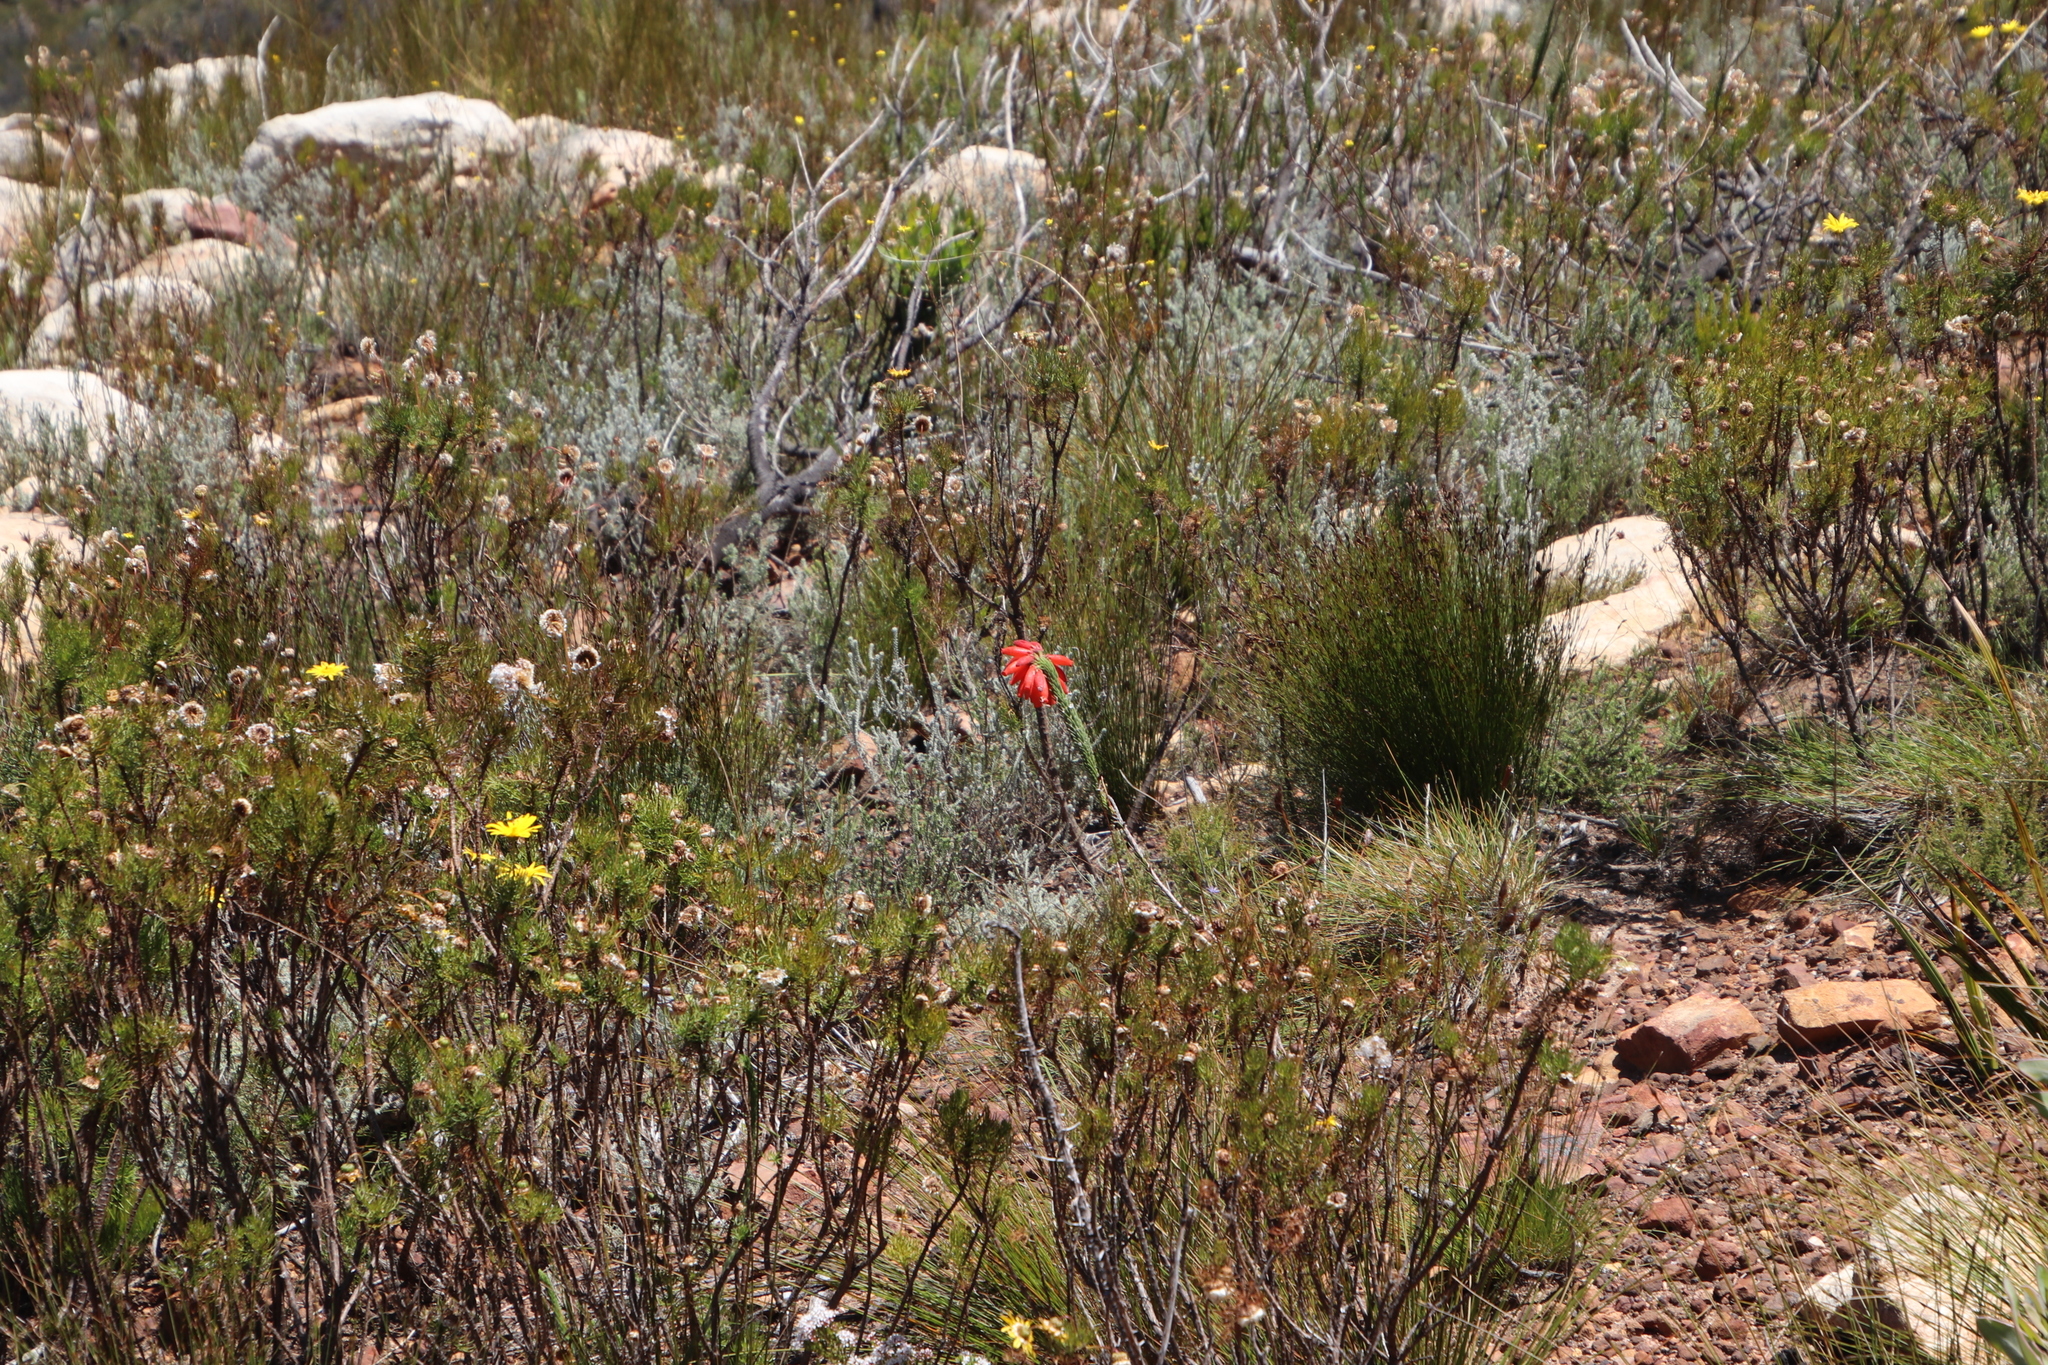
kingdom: Plantae
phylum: Tracheophyta
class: Magnoliopsida
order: Ericales
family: Ericaceae
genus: Erica
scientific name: Erica cerinthoides
